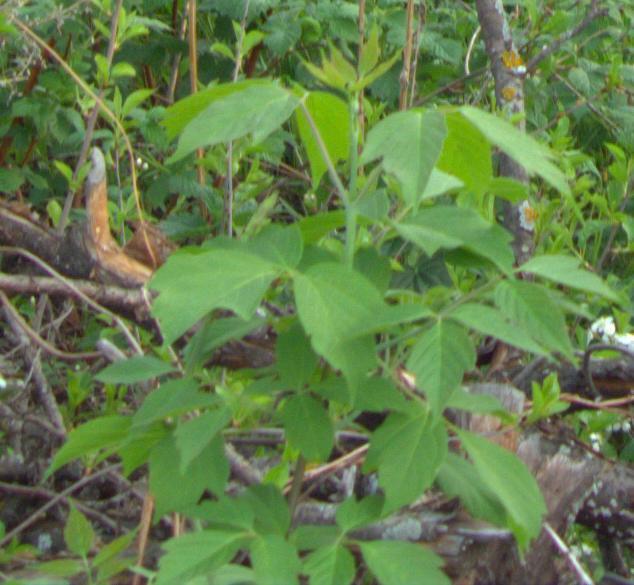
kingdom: Plantae
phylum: Tracheophyta
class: Magnoliopsida
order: Sapindales
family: Sapindaceae
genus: Acer
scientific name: Acer negundo
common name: Ashleaf maple
